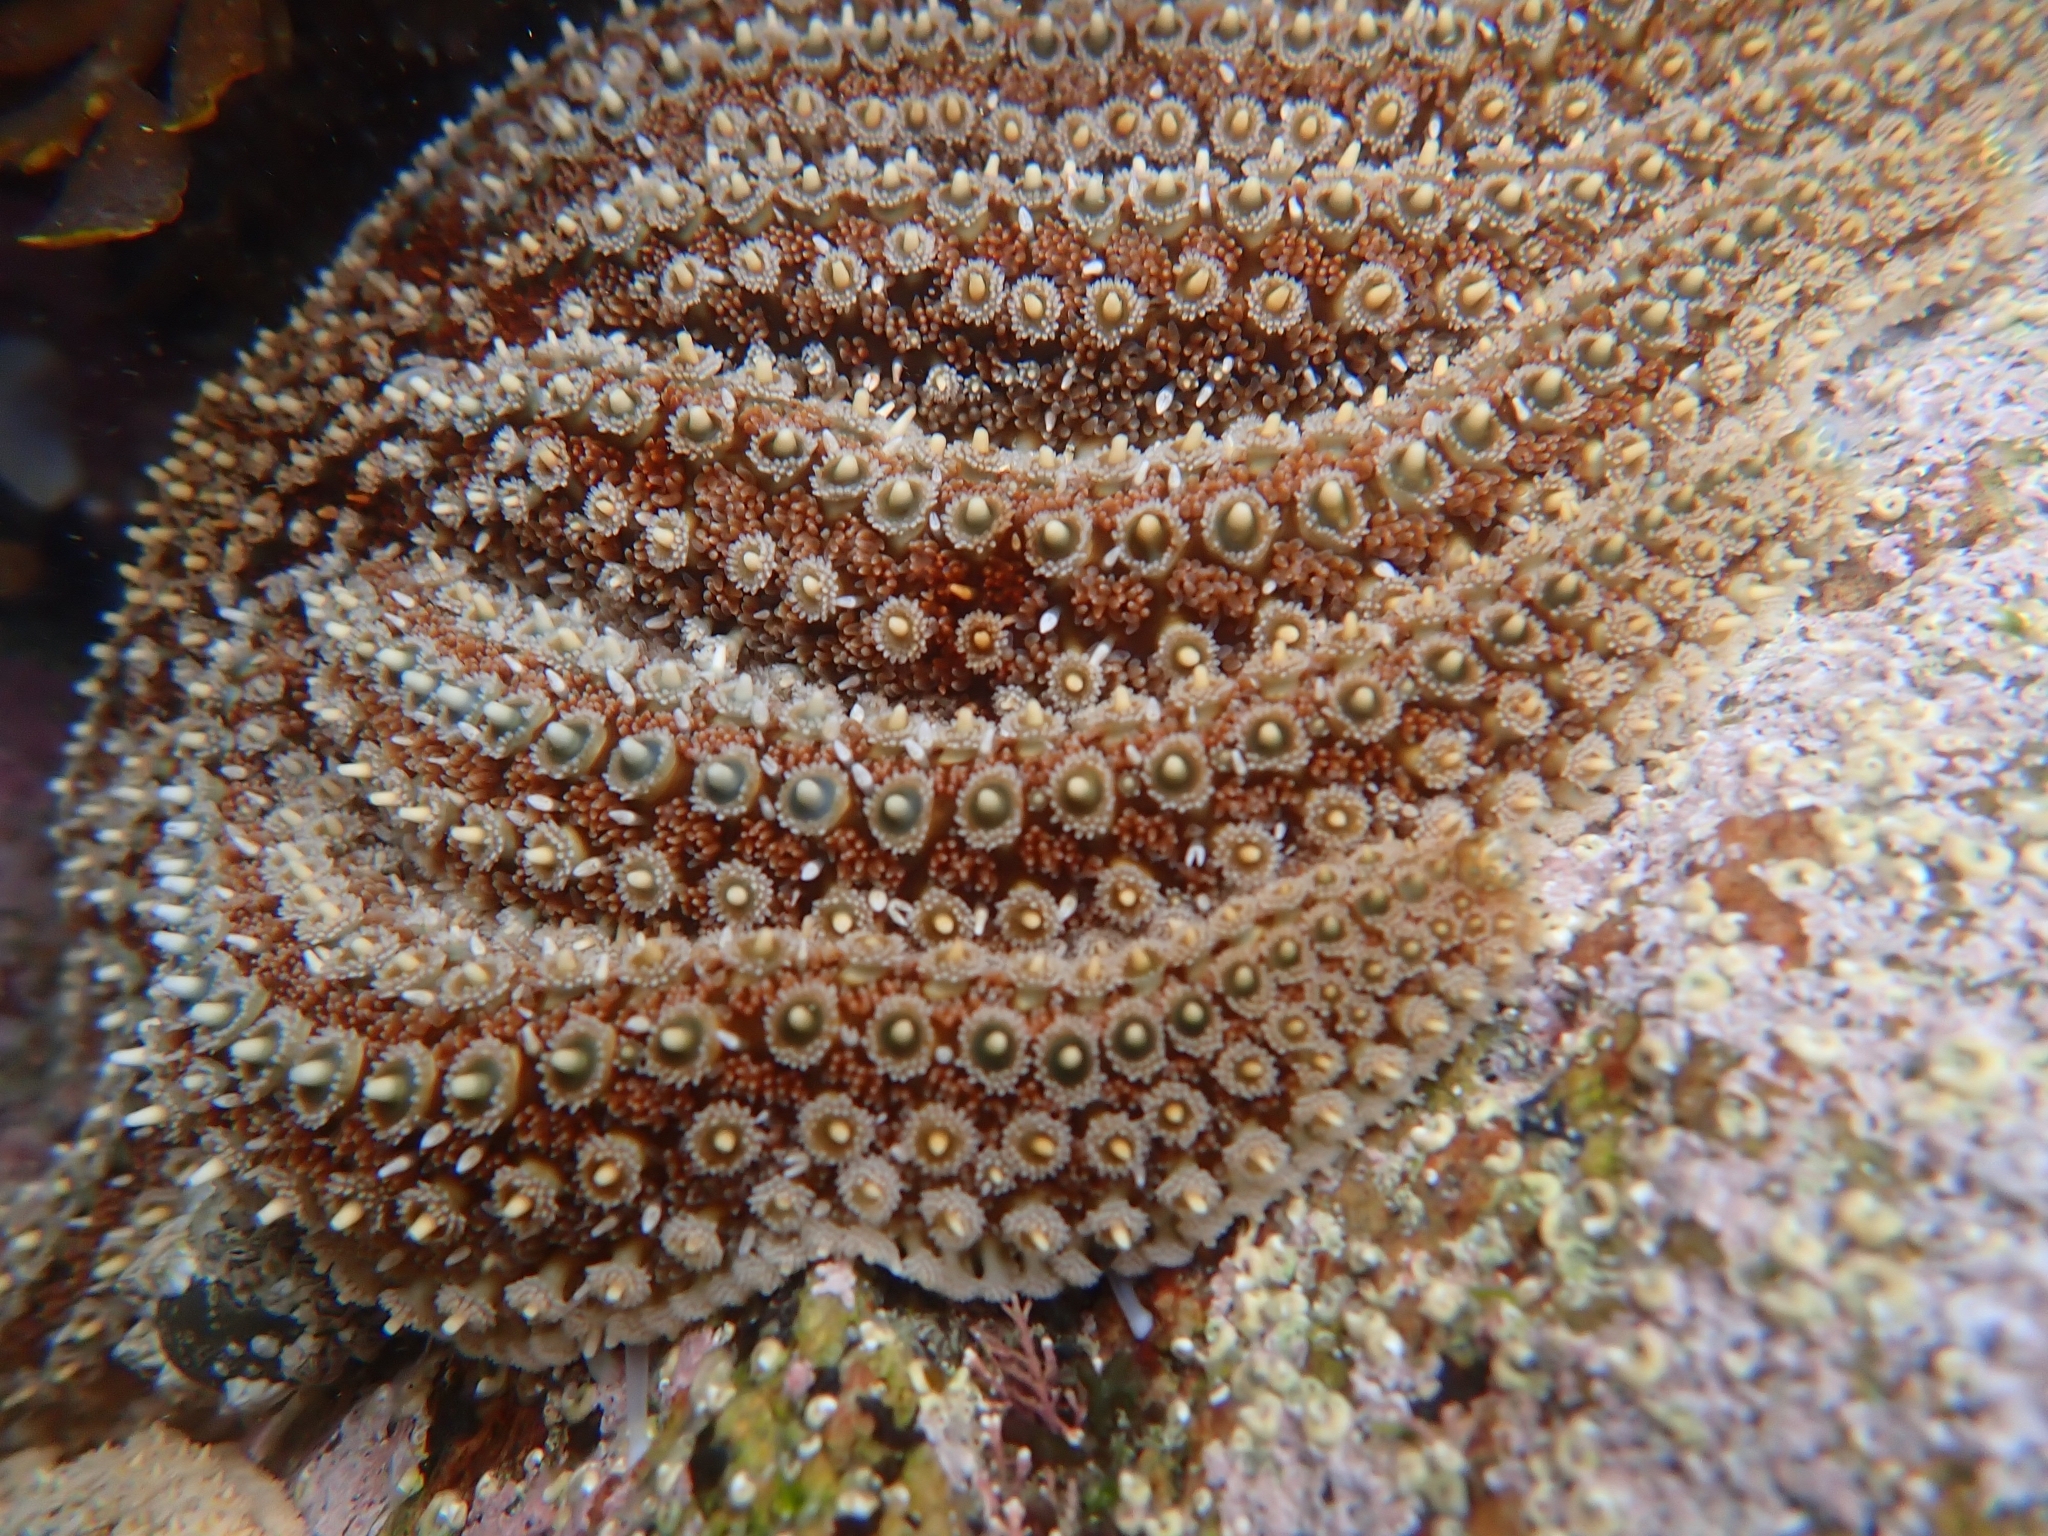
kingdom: Animalia
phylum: Echinodermata
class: Asteroidea
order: Forcipulatida
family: Asteriidae
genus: Coscinasterias
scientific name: Coscinasterias muricata
